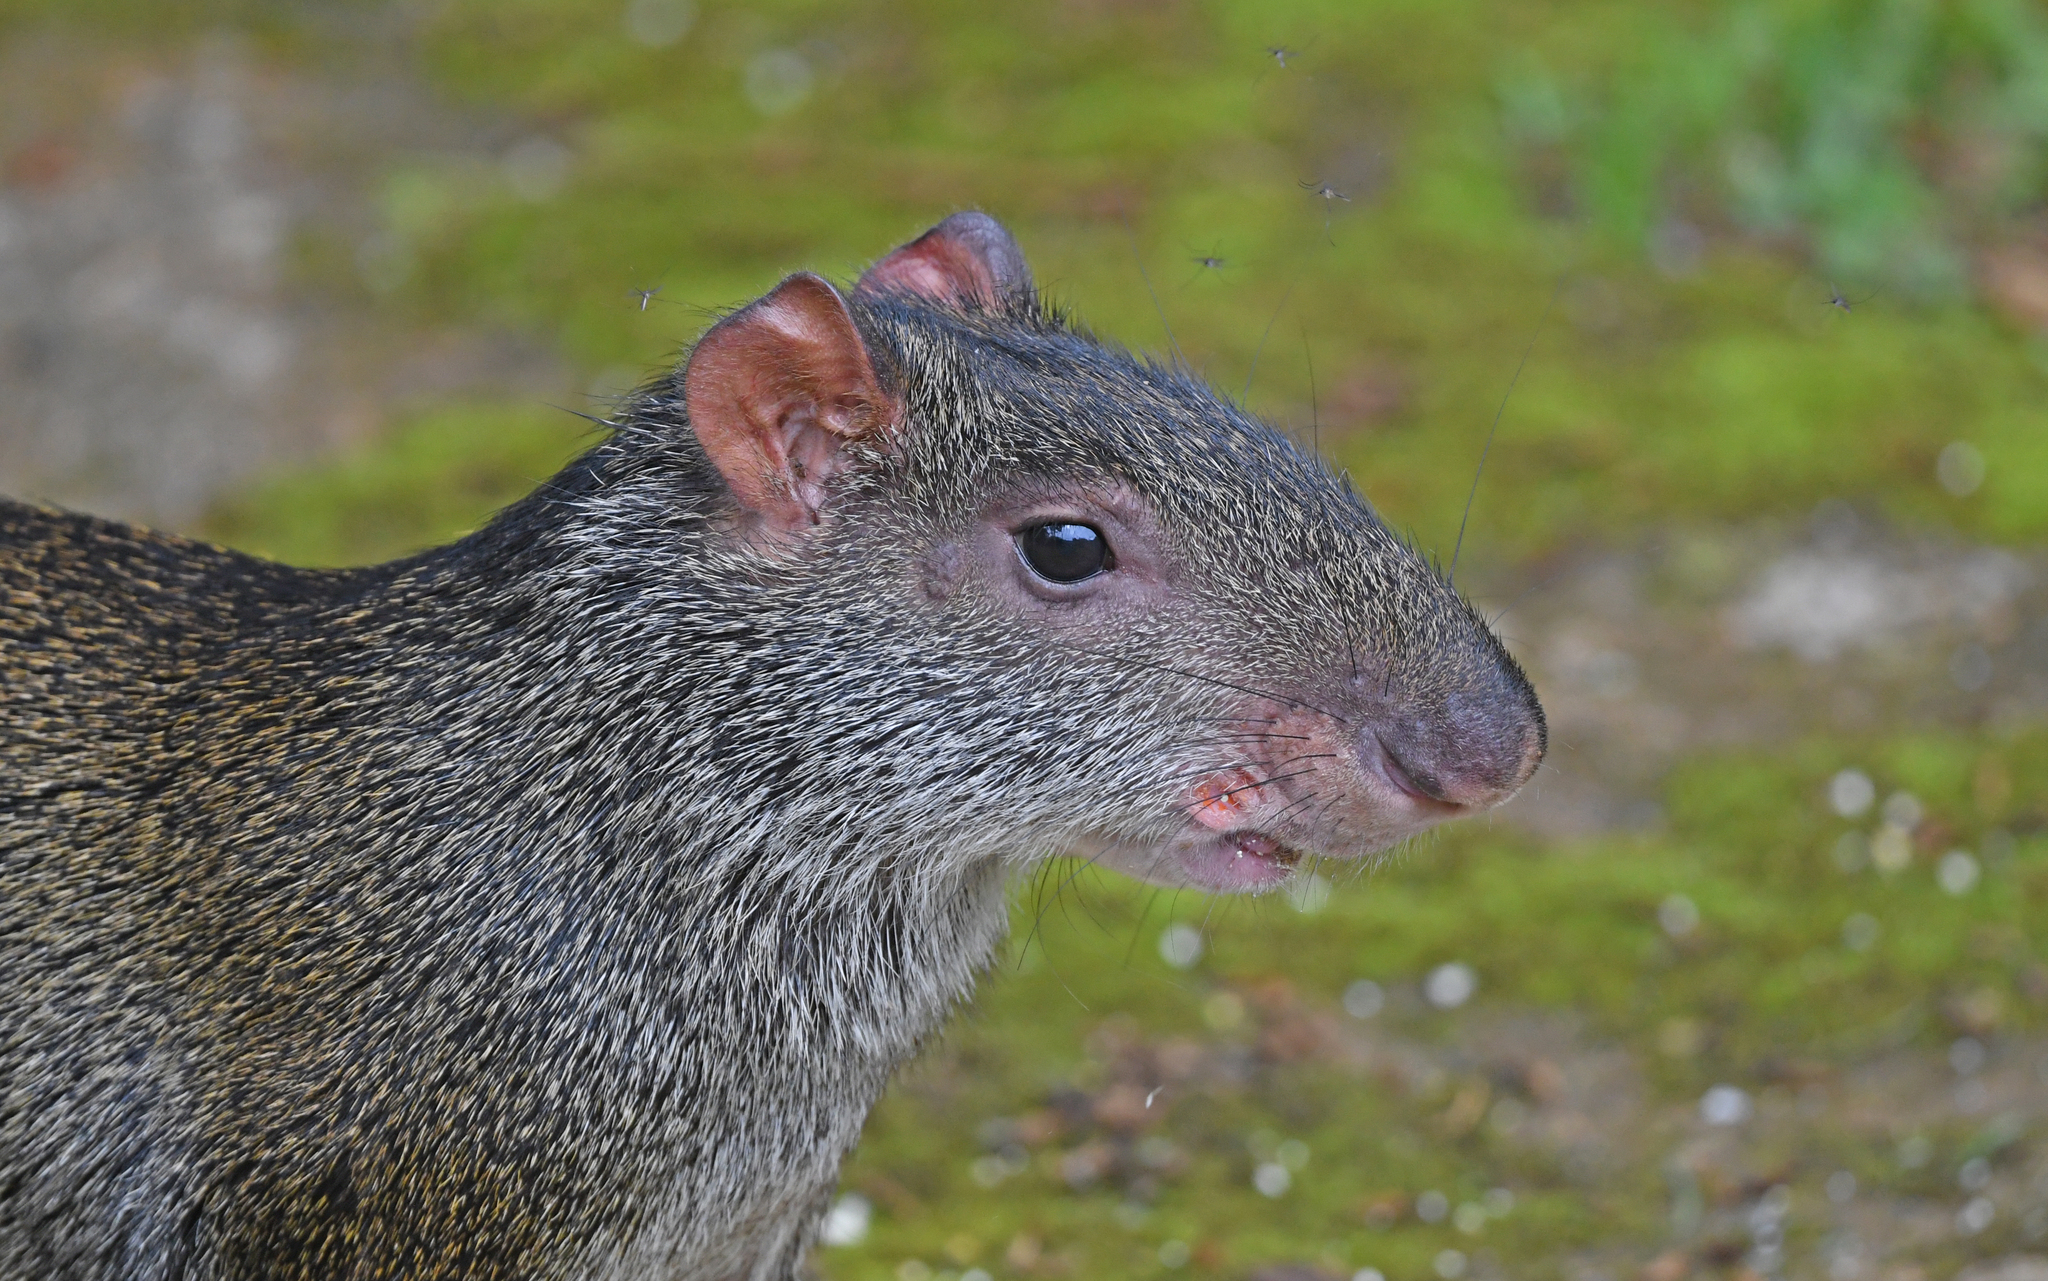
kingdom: Animalia
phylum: Chordata
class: Mammalia
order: Rodentia
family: Dasyproctidae
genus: Dasyprocta
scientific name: Dasyprocta punctata
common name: Central american agouti
